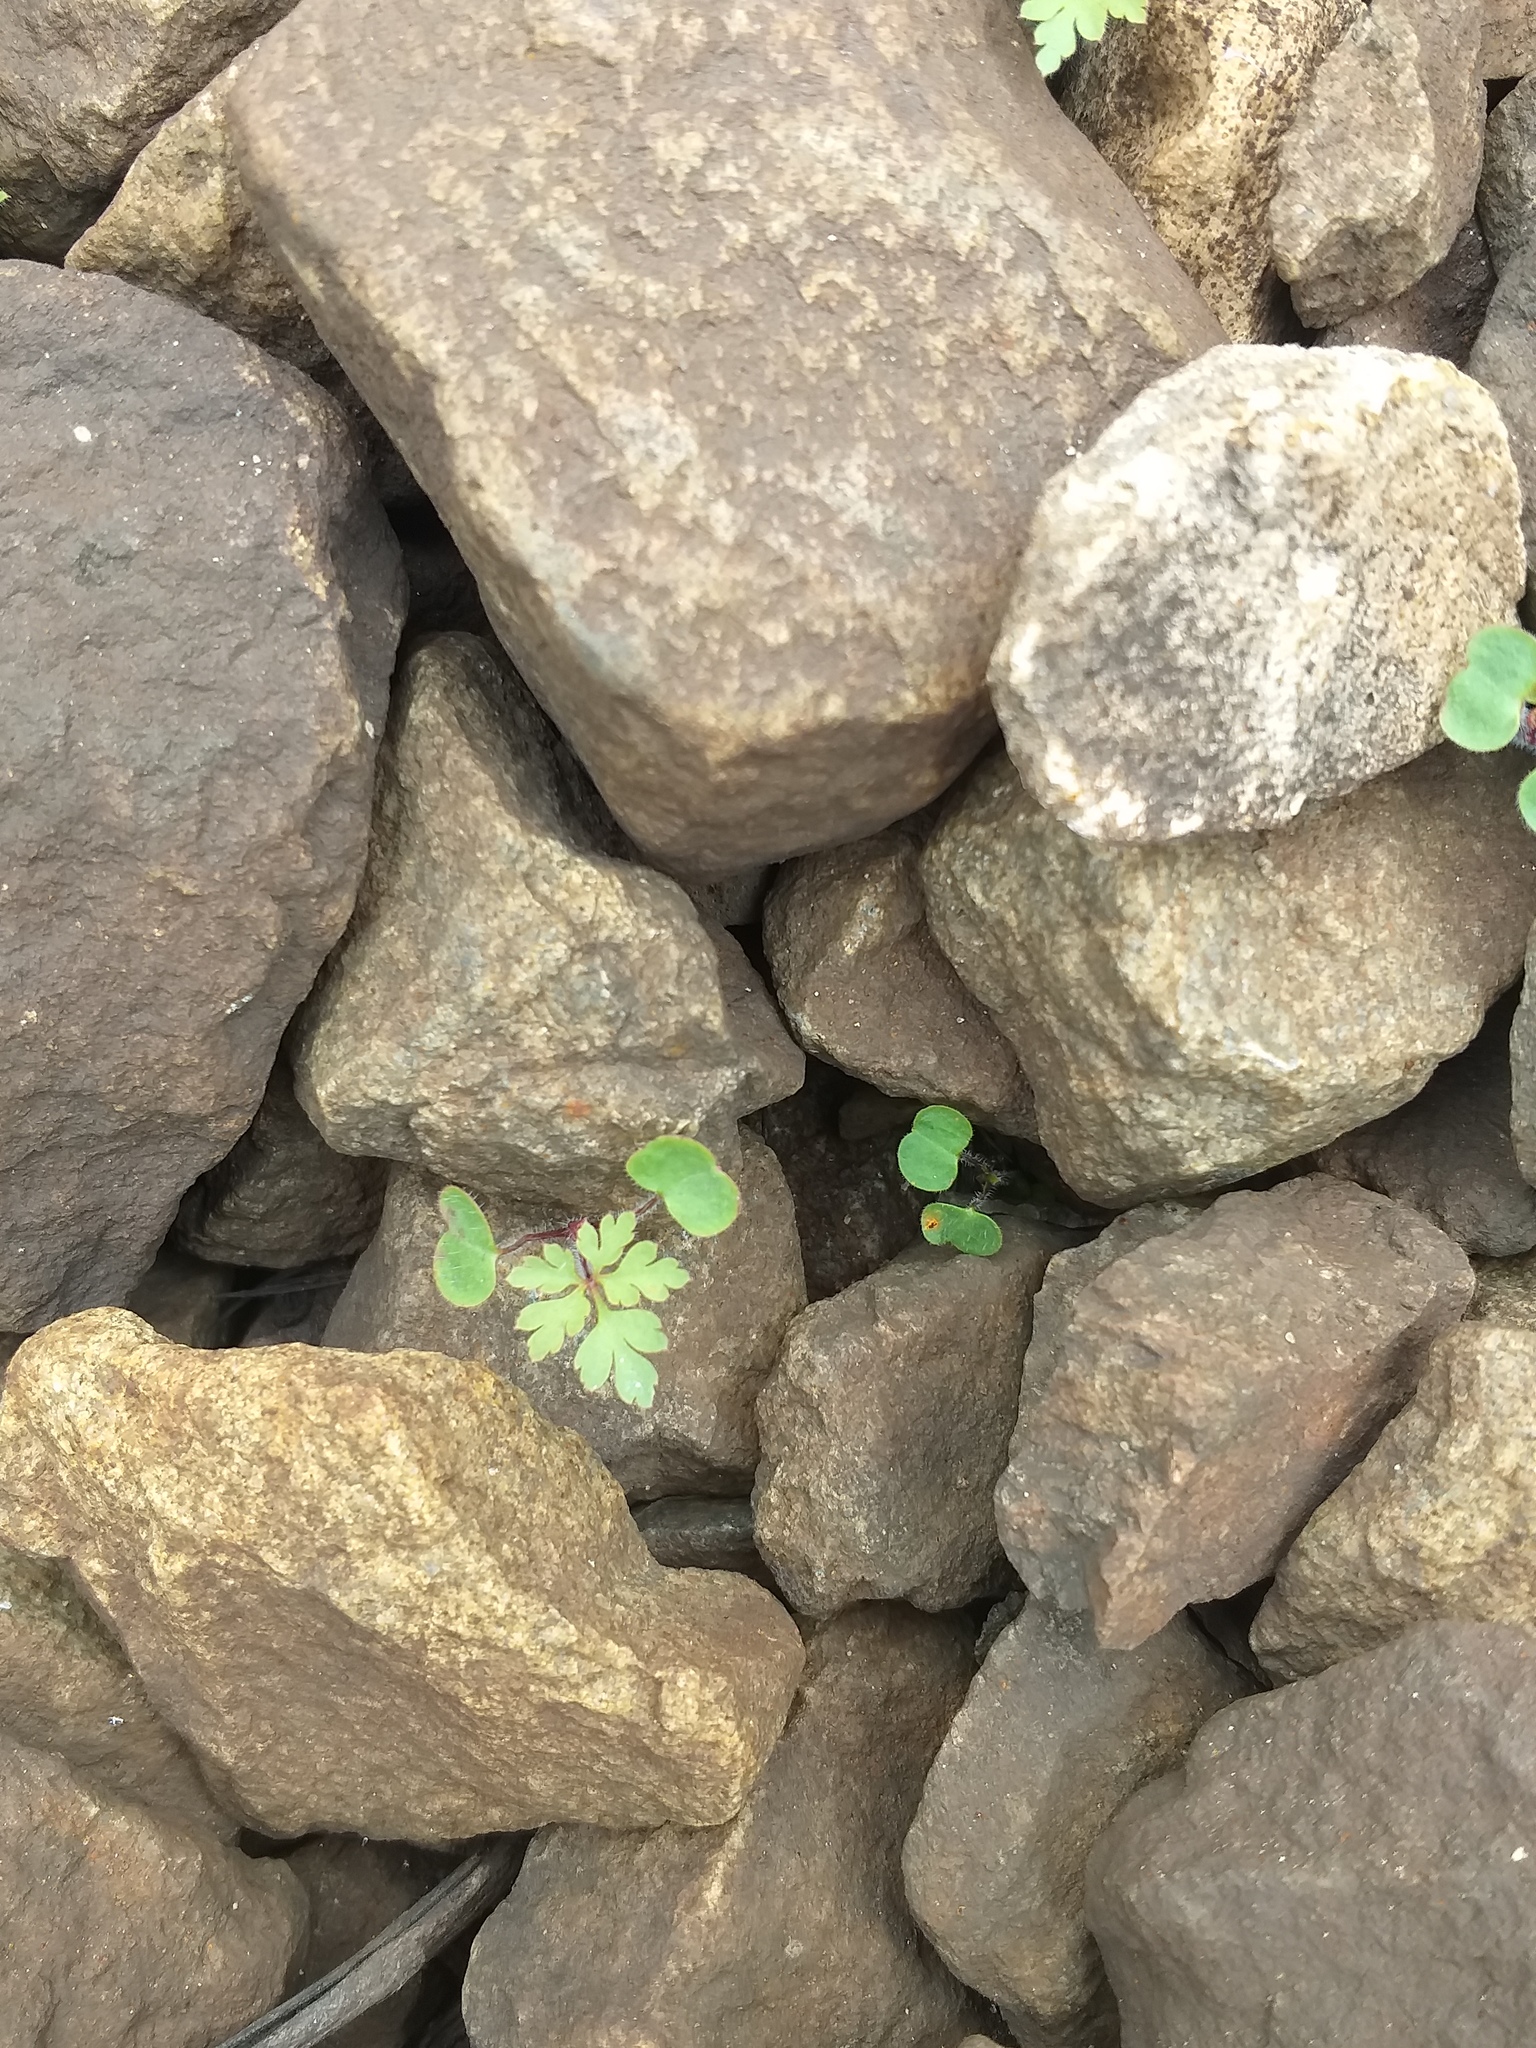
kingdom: Plantae
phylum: Tracheophyta
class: Magnoliopsida
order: Geraniales
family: Geraniaceae
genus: Geranium
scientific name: Geranium robertianum
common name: Herb-robert
